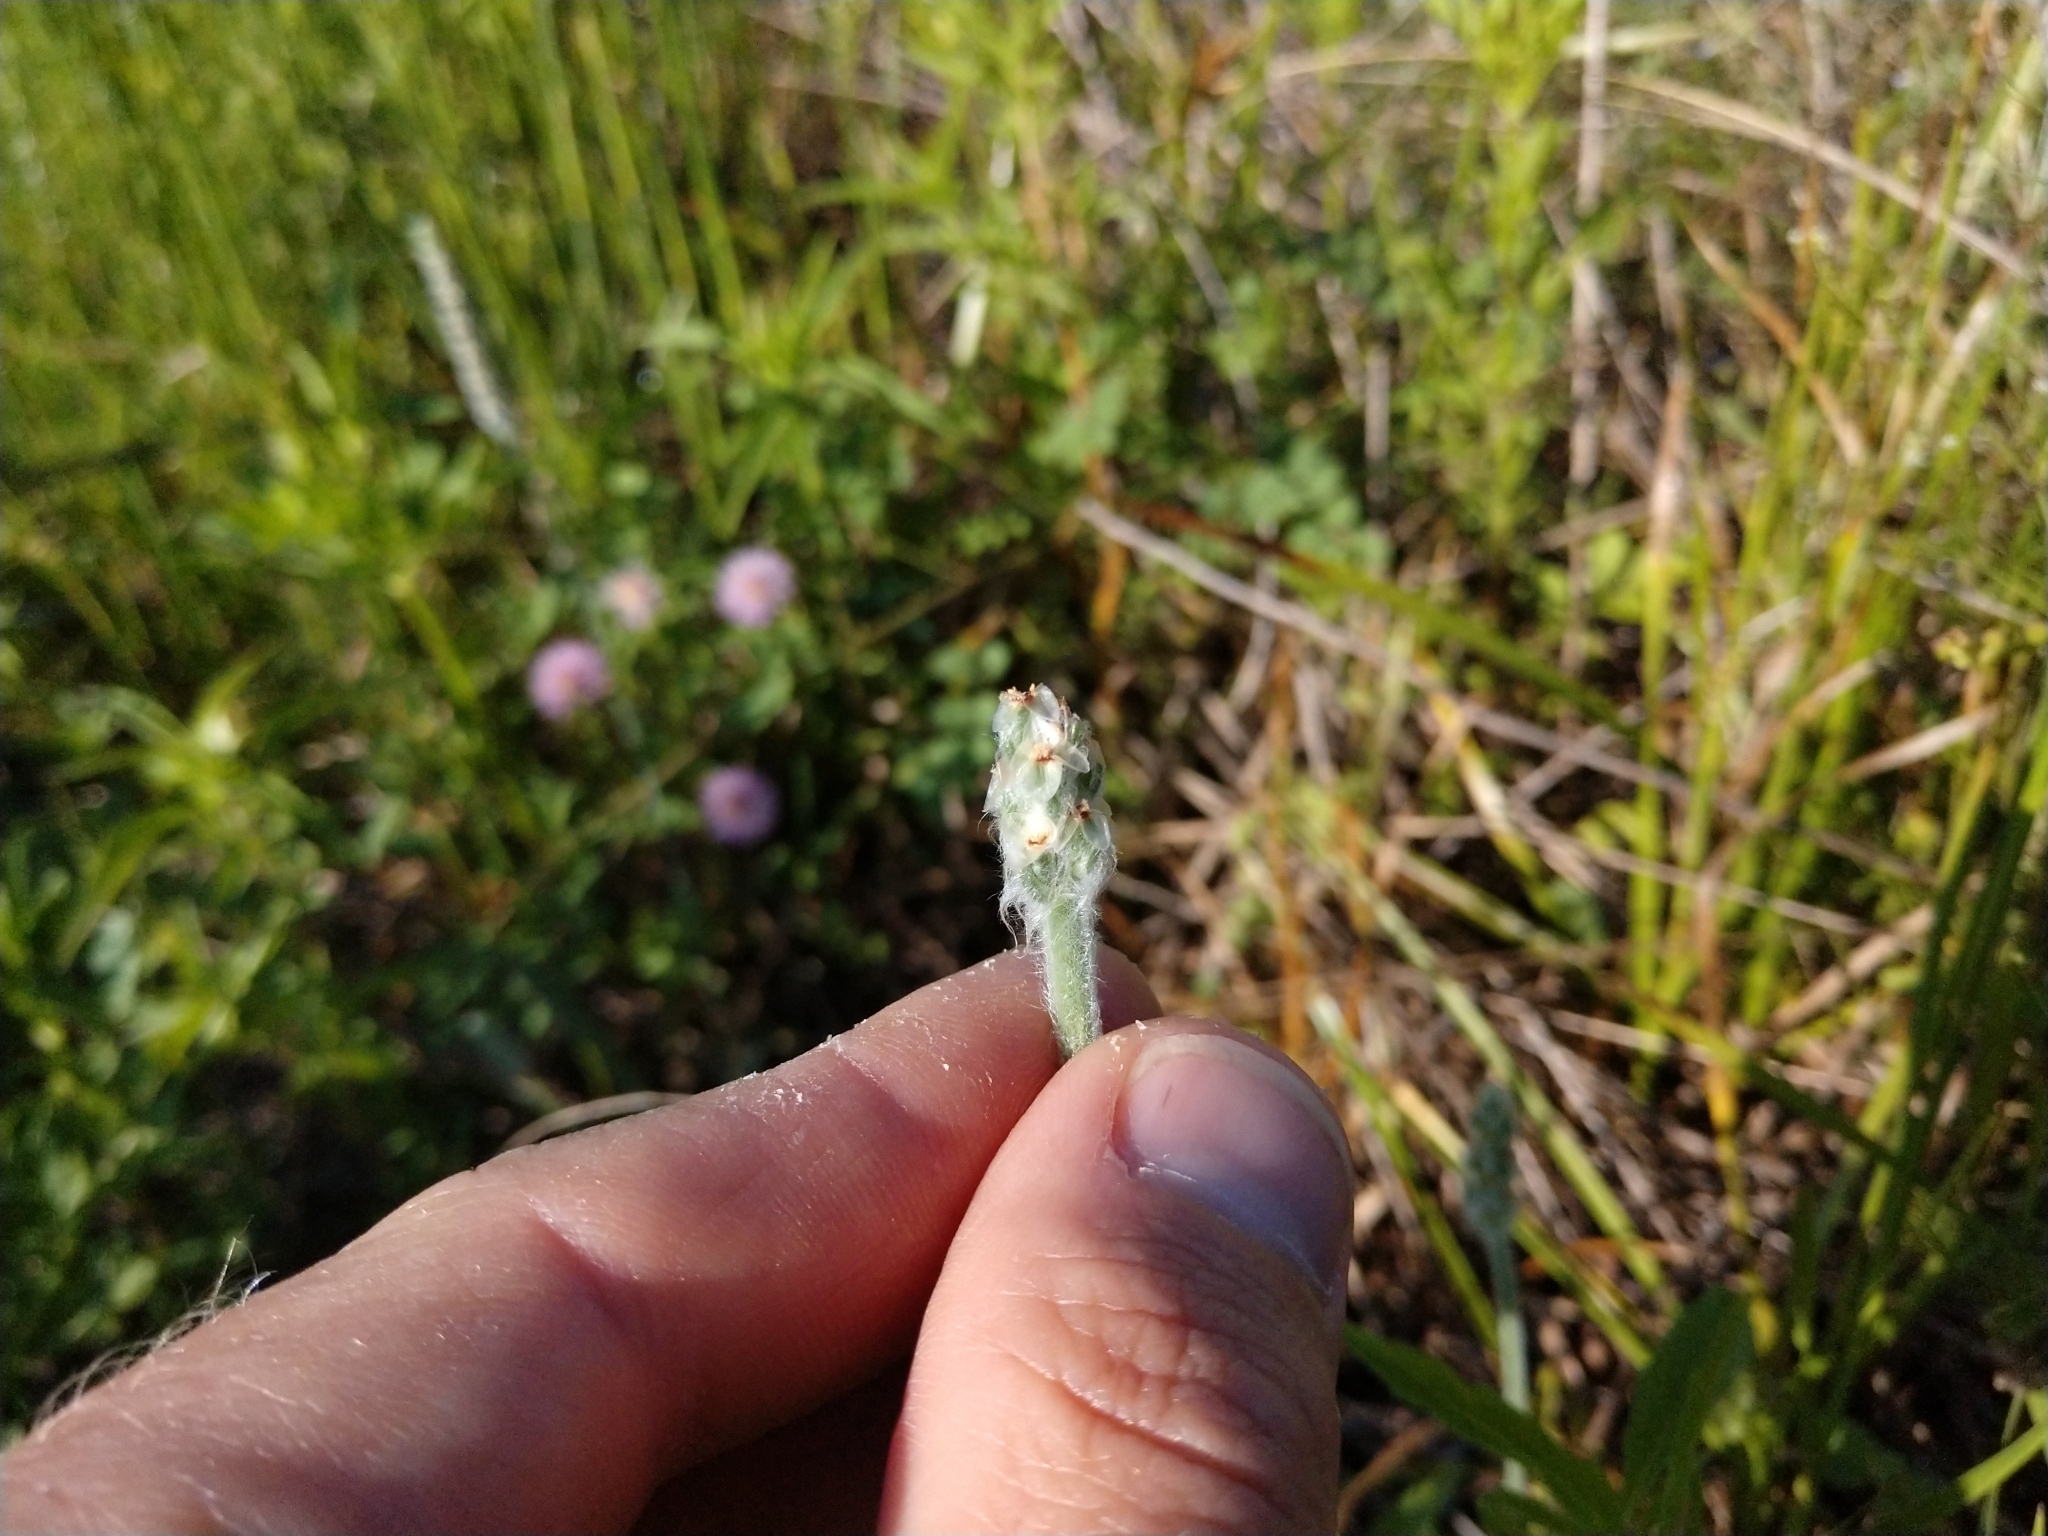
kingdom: Plantae
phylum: Tracheophyta
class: Magnoliopsida
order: Lamiales
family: Plantaginaceae
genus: Plantago
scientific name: Plantago patagonica
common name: Patagonia indian-wheat
